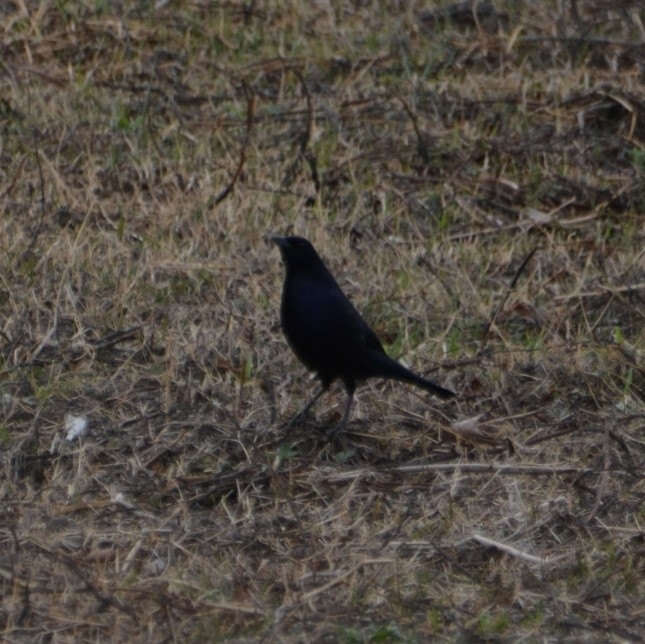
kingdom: Animalia
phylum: Chordata
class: Aves
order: Passeriformes
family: Icteridae
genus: Molothrus
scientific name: Molothrus bonariensis
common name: Shiny cowbird
